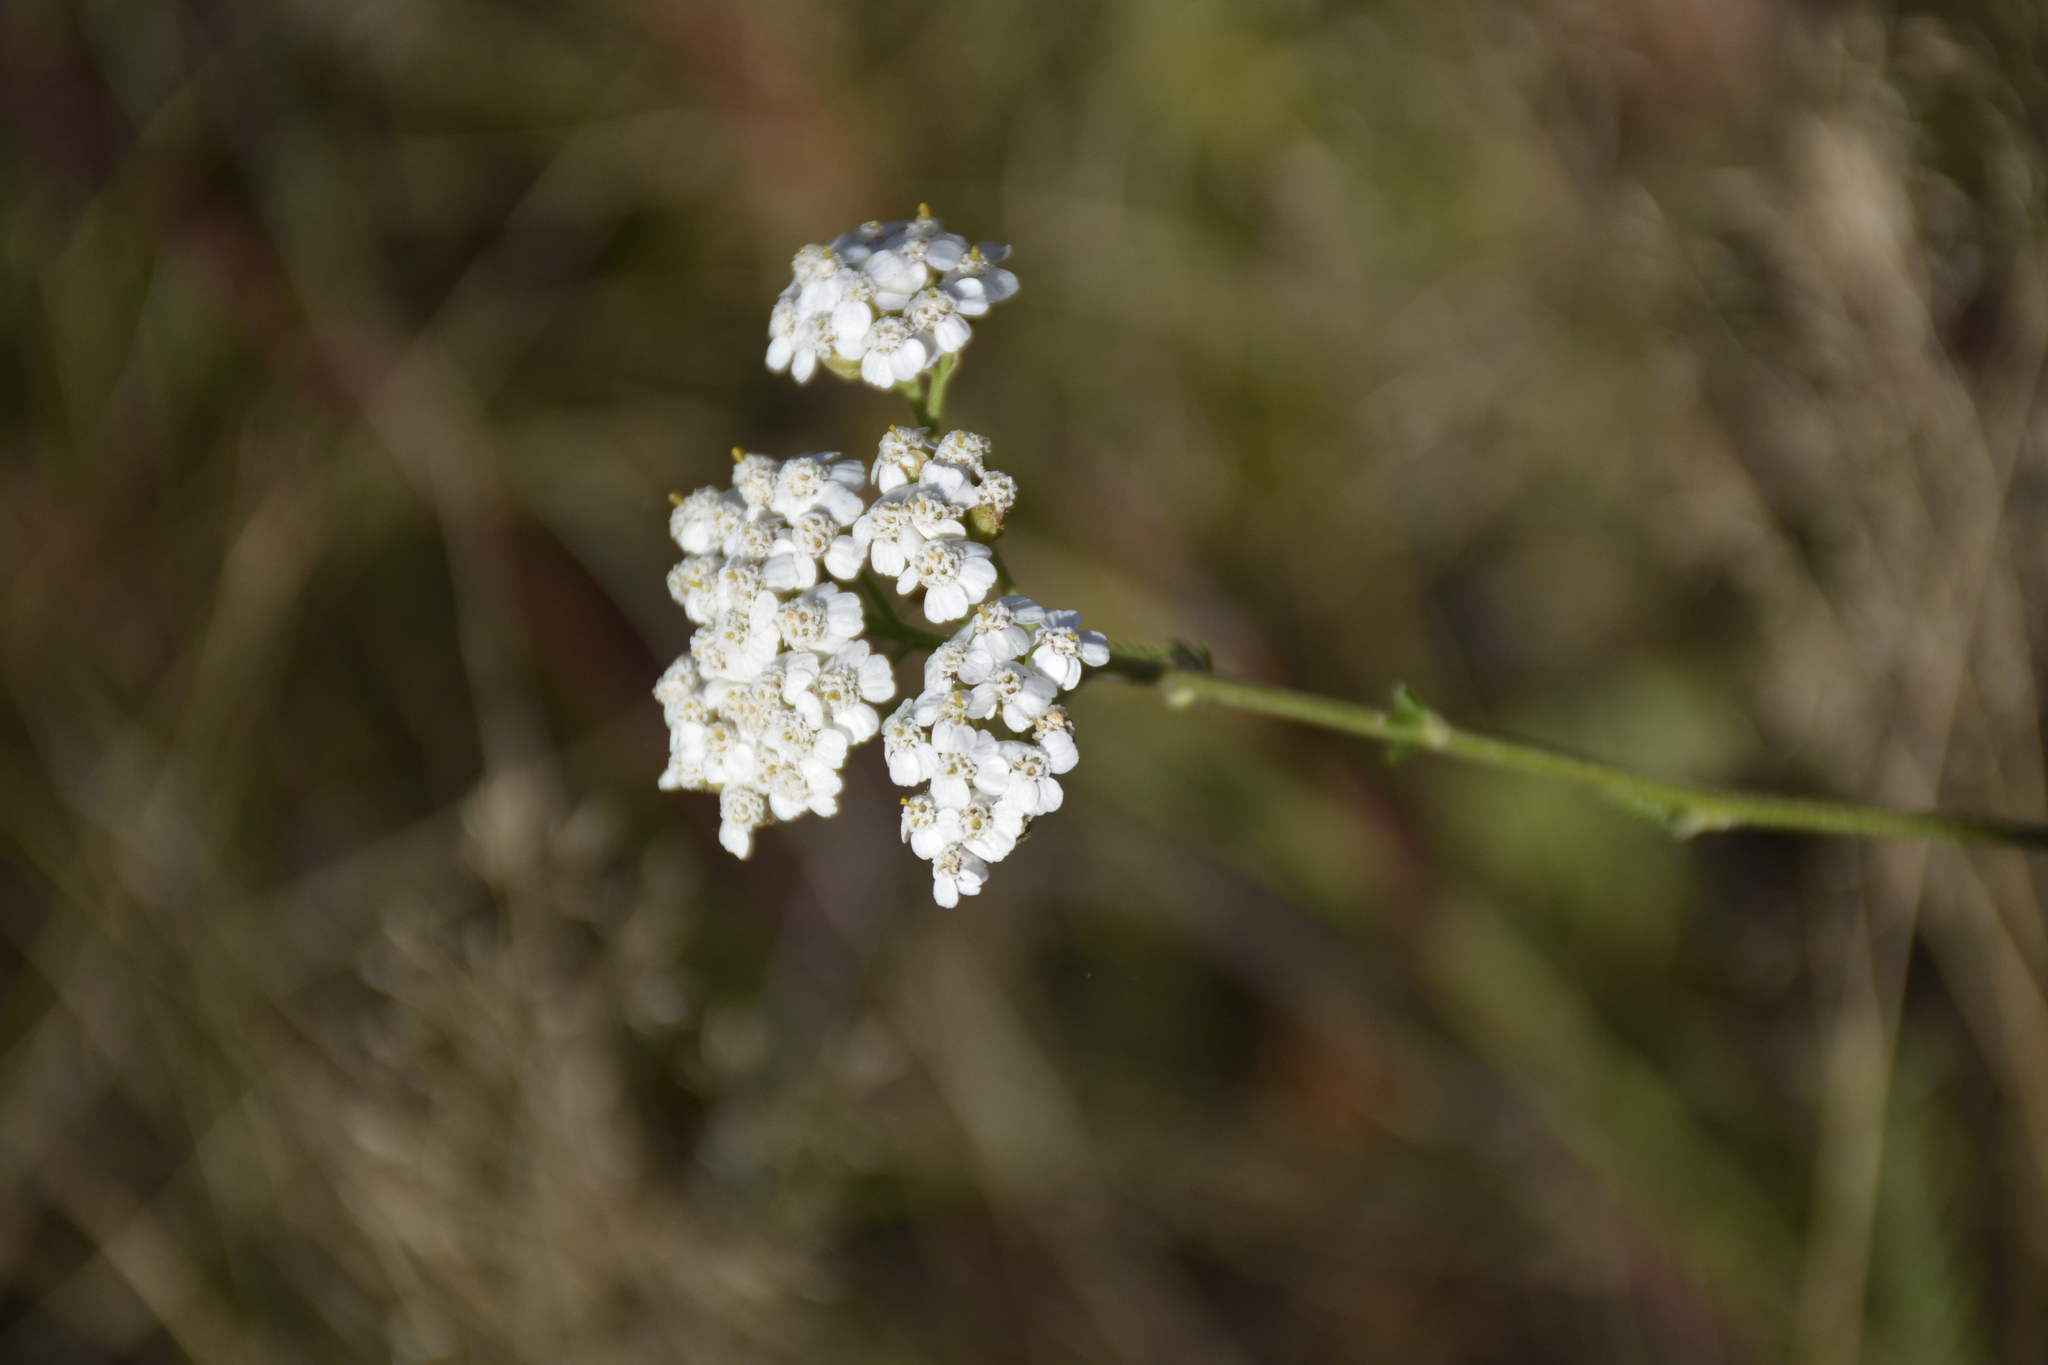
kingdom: Plantae
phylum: Tracheophyta
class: Magnoliopsida
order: Asterales
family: Asteraceae
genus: Achillea
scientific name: Achillea millefolium
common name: Yarrow
